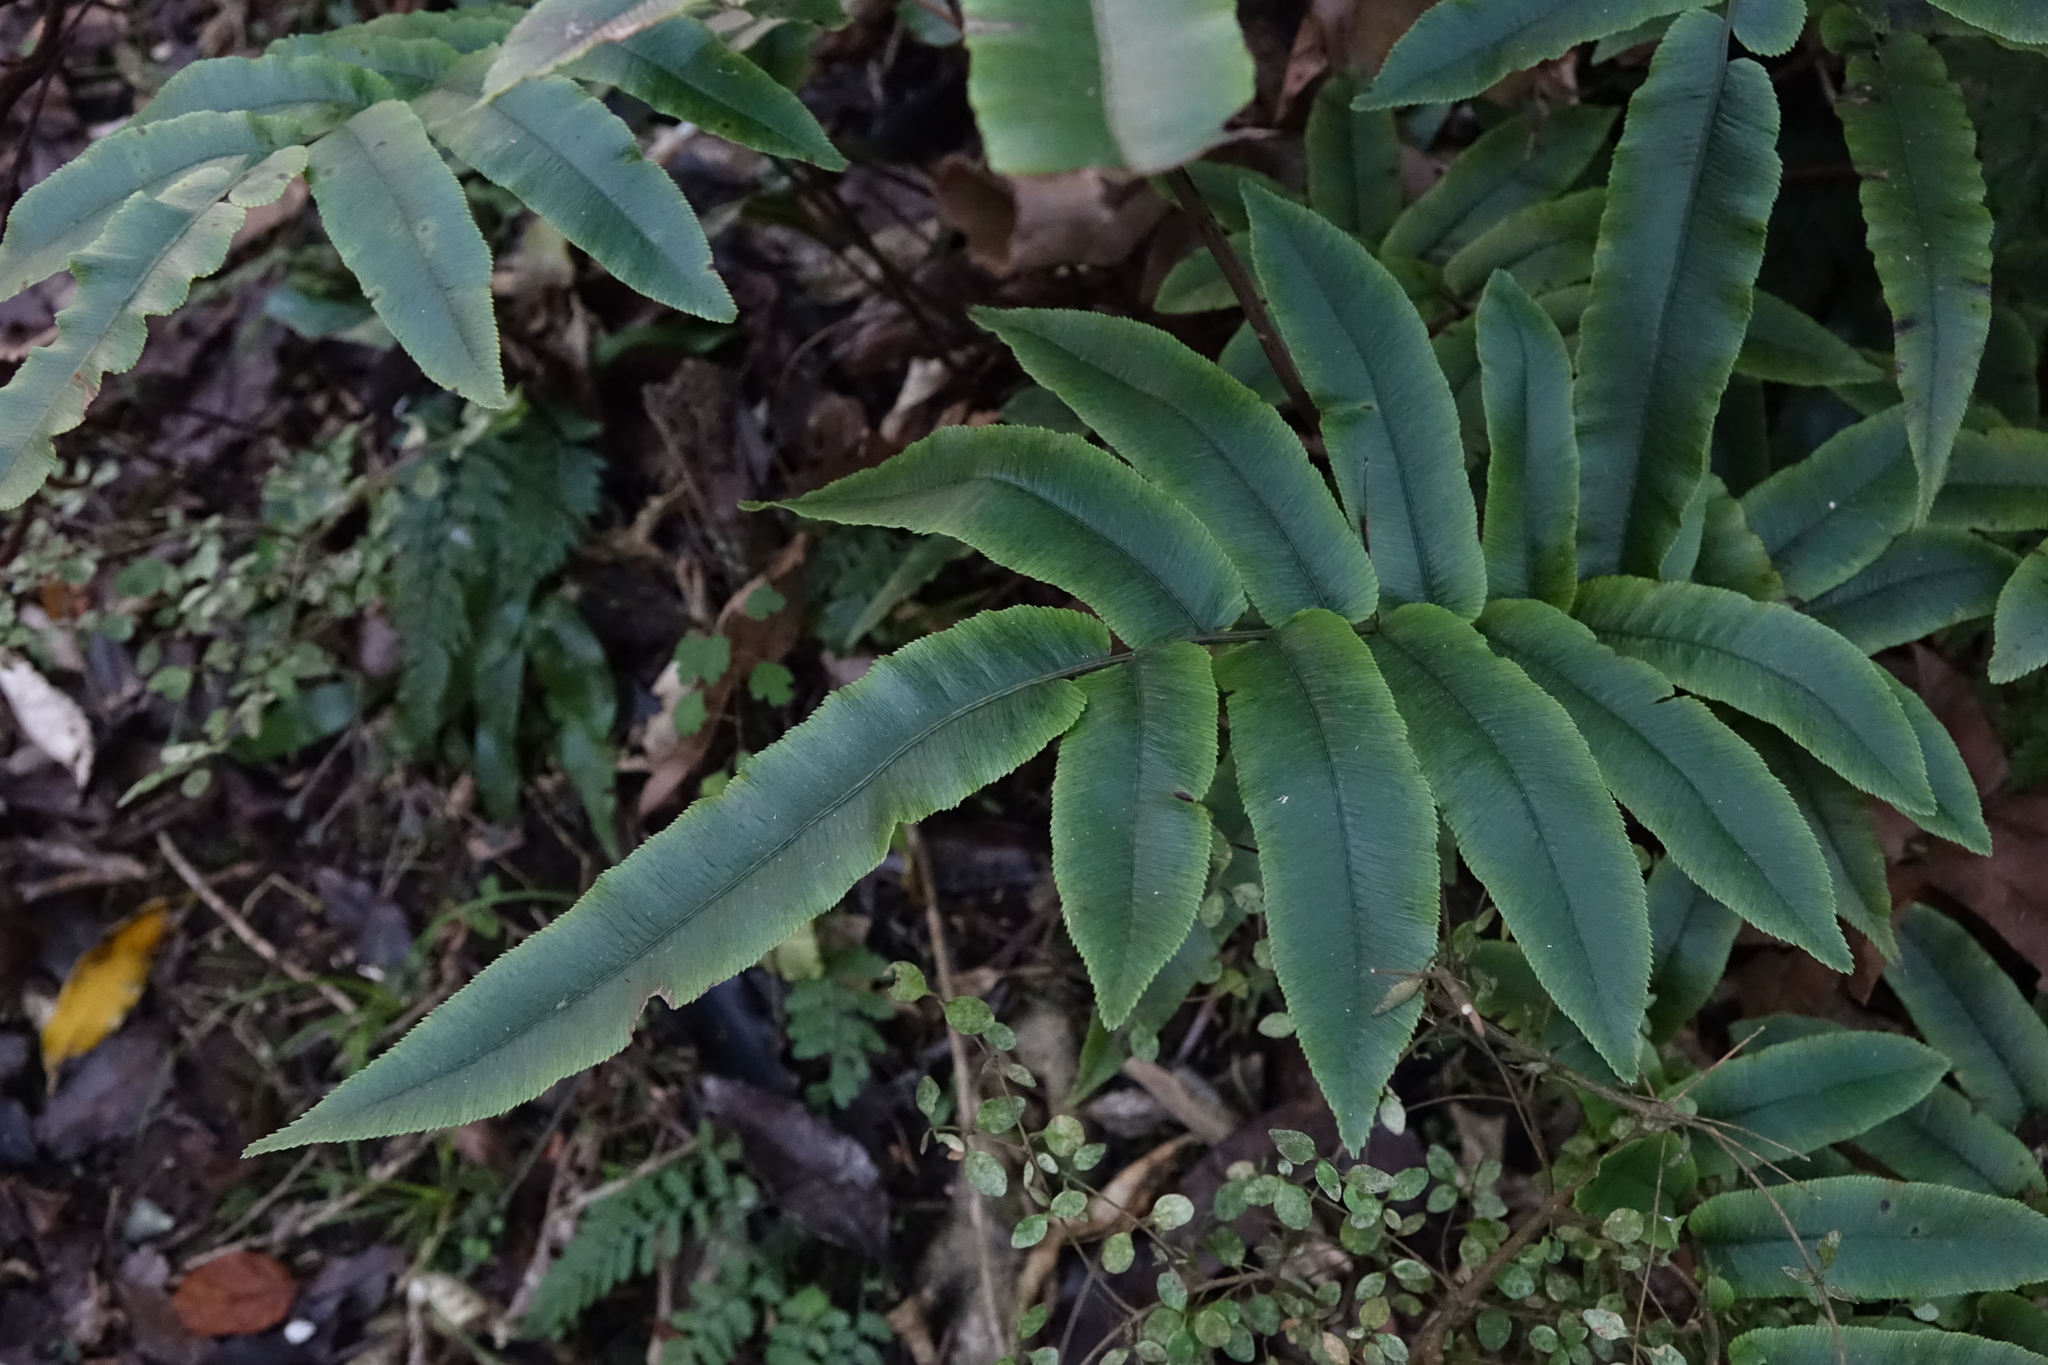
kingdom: Plantae
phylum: Tracheophyta
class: Polypodiopsida
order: Polypodiales
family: Blechnaceae
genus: Parablechnum
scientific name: Parablechnum procerum
